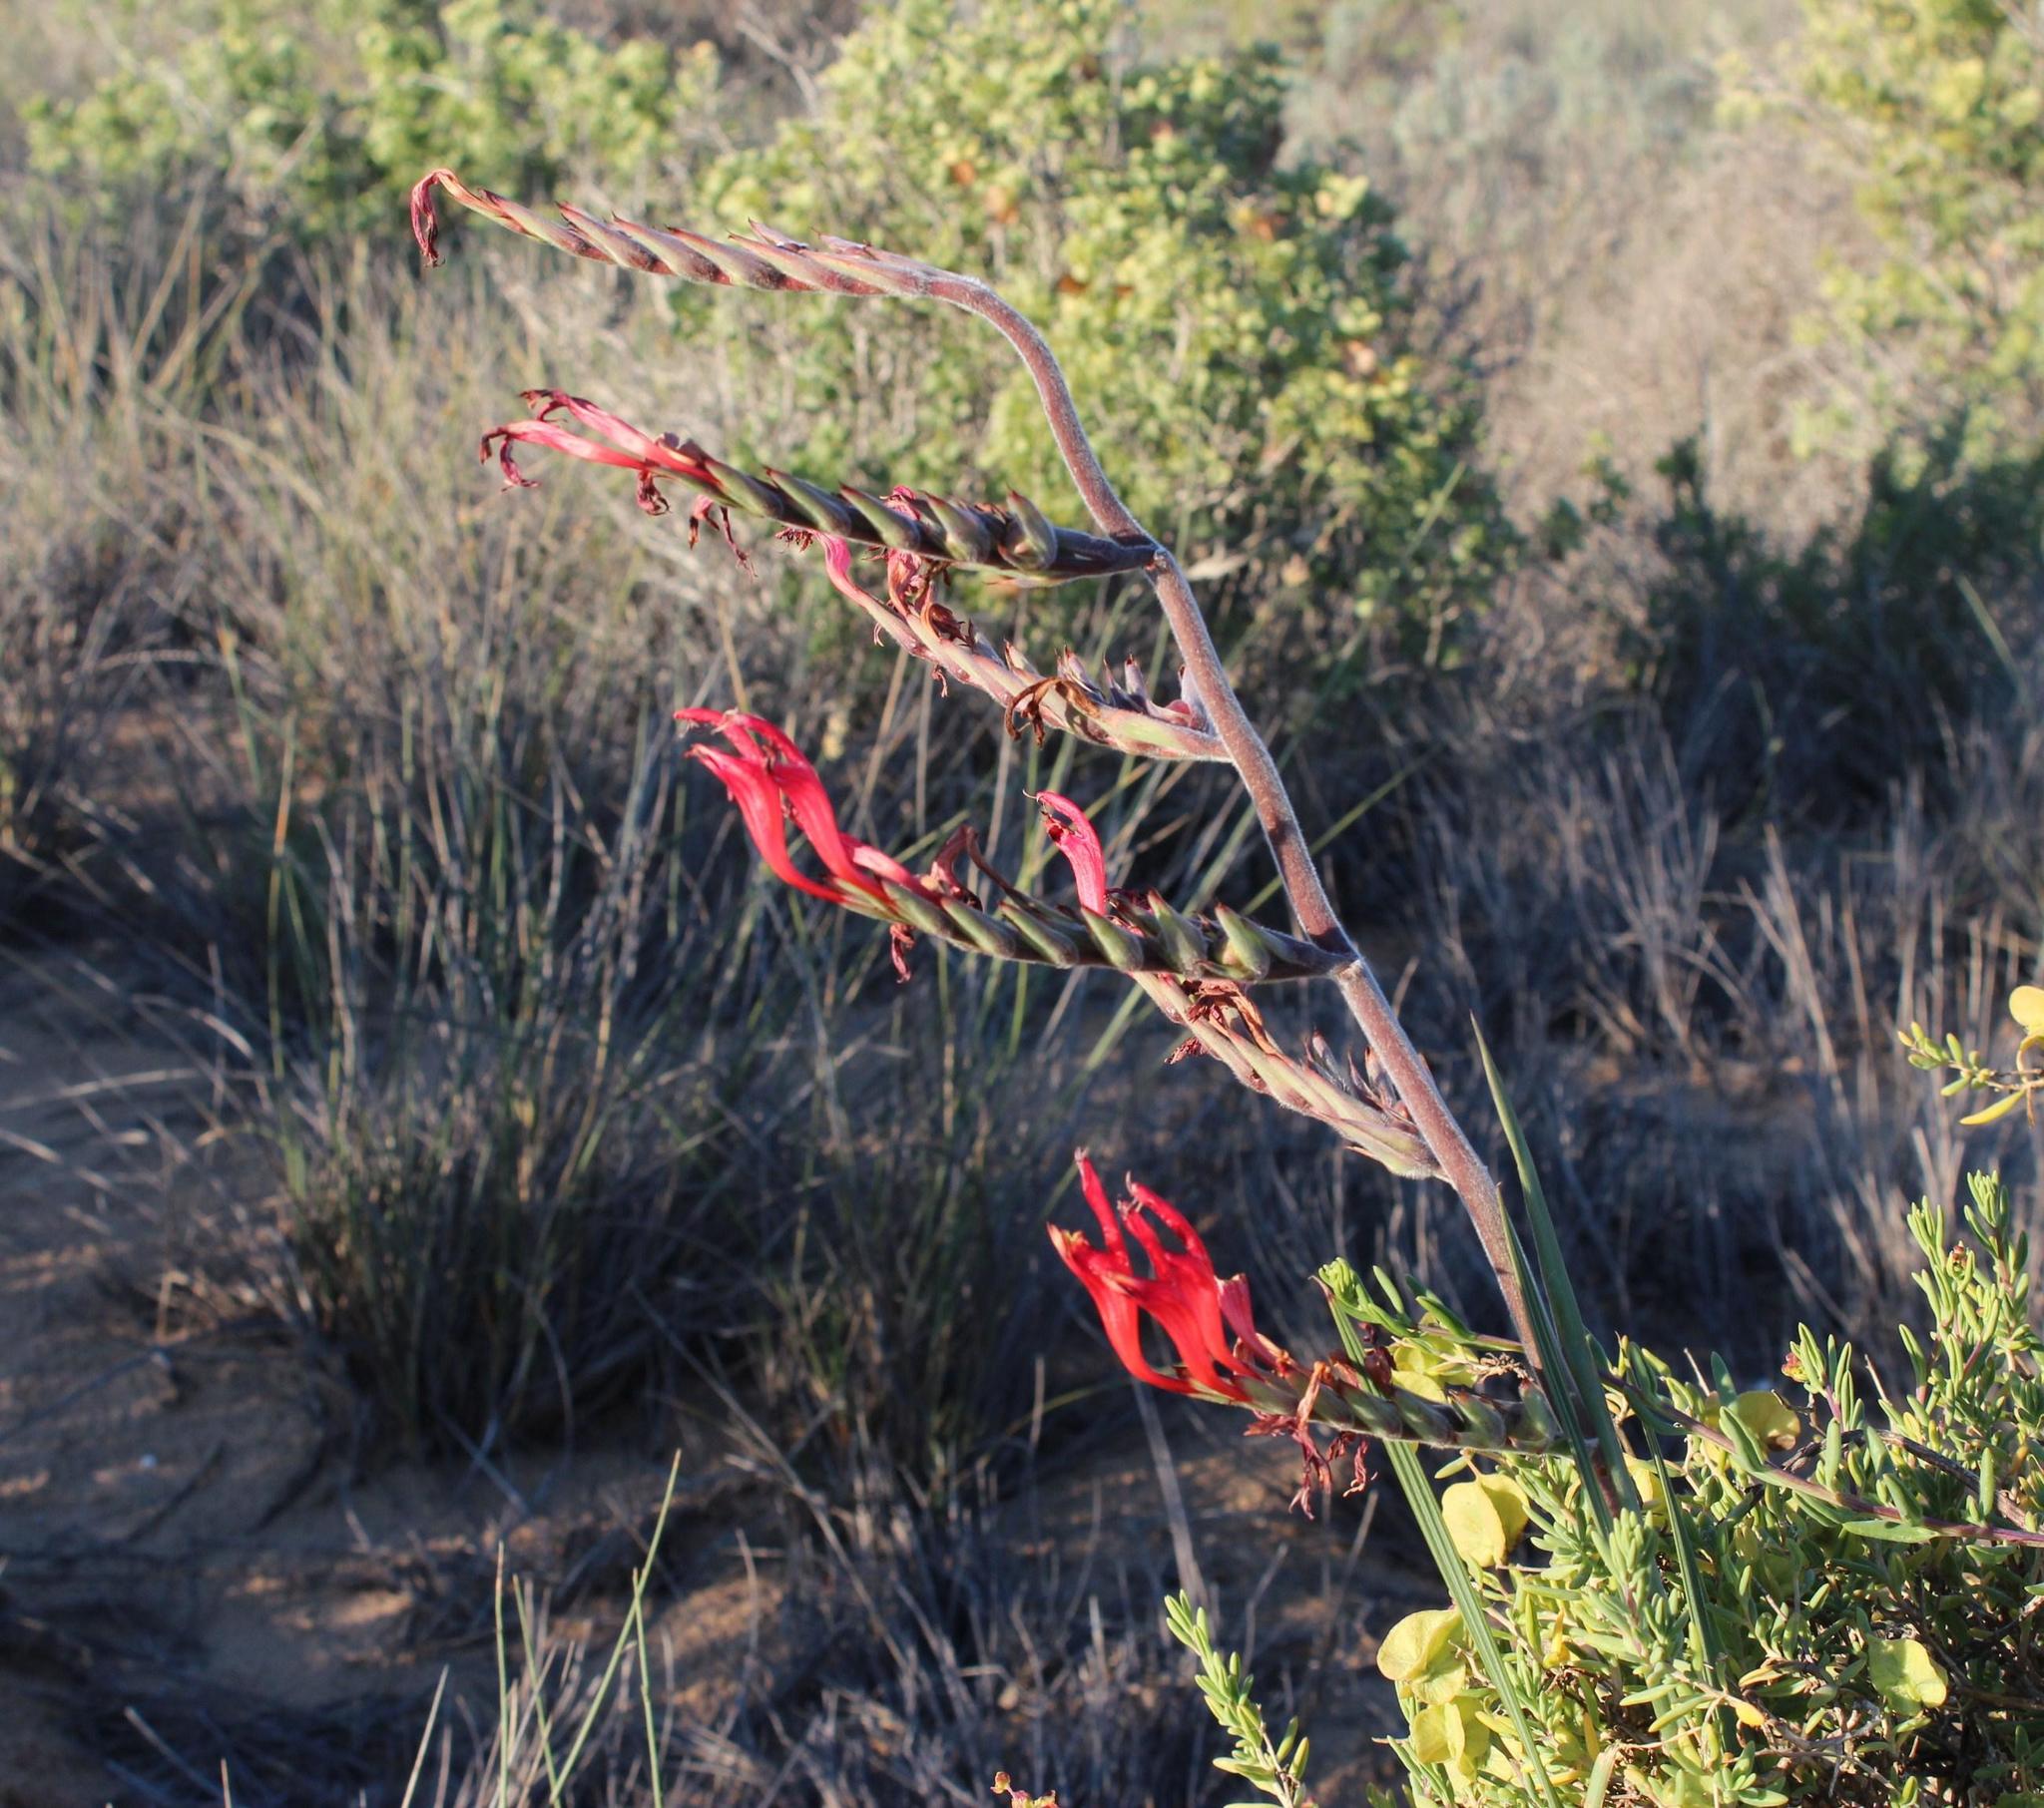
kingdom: Plantae
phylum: Tracheophyta
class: Liliopsida
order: Asparagales
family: Iridaceae
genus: Babiana
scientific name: Babiana hirsuta
